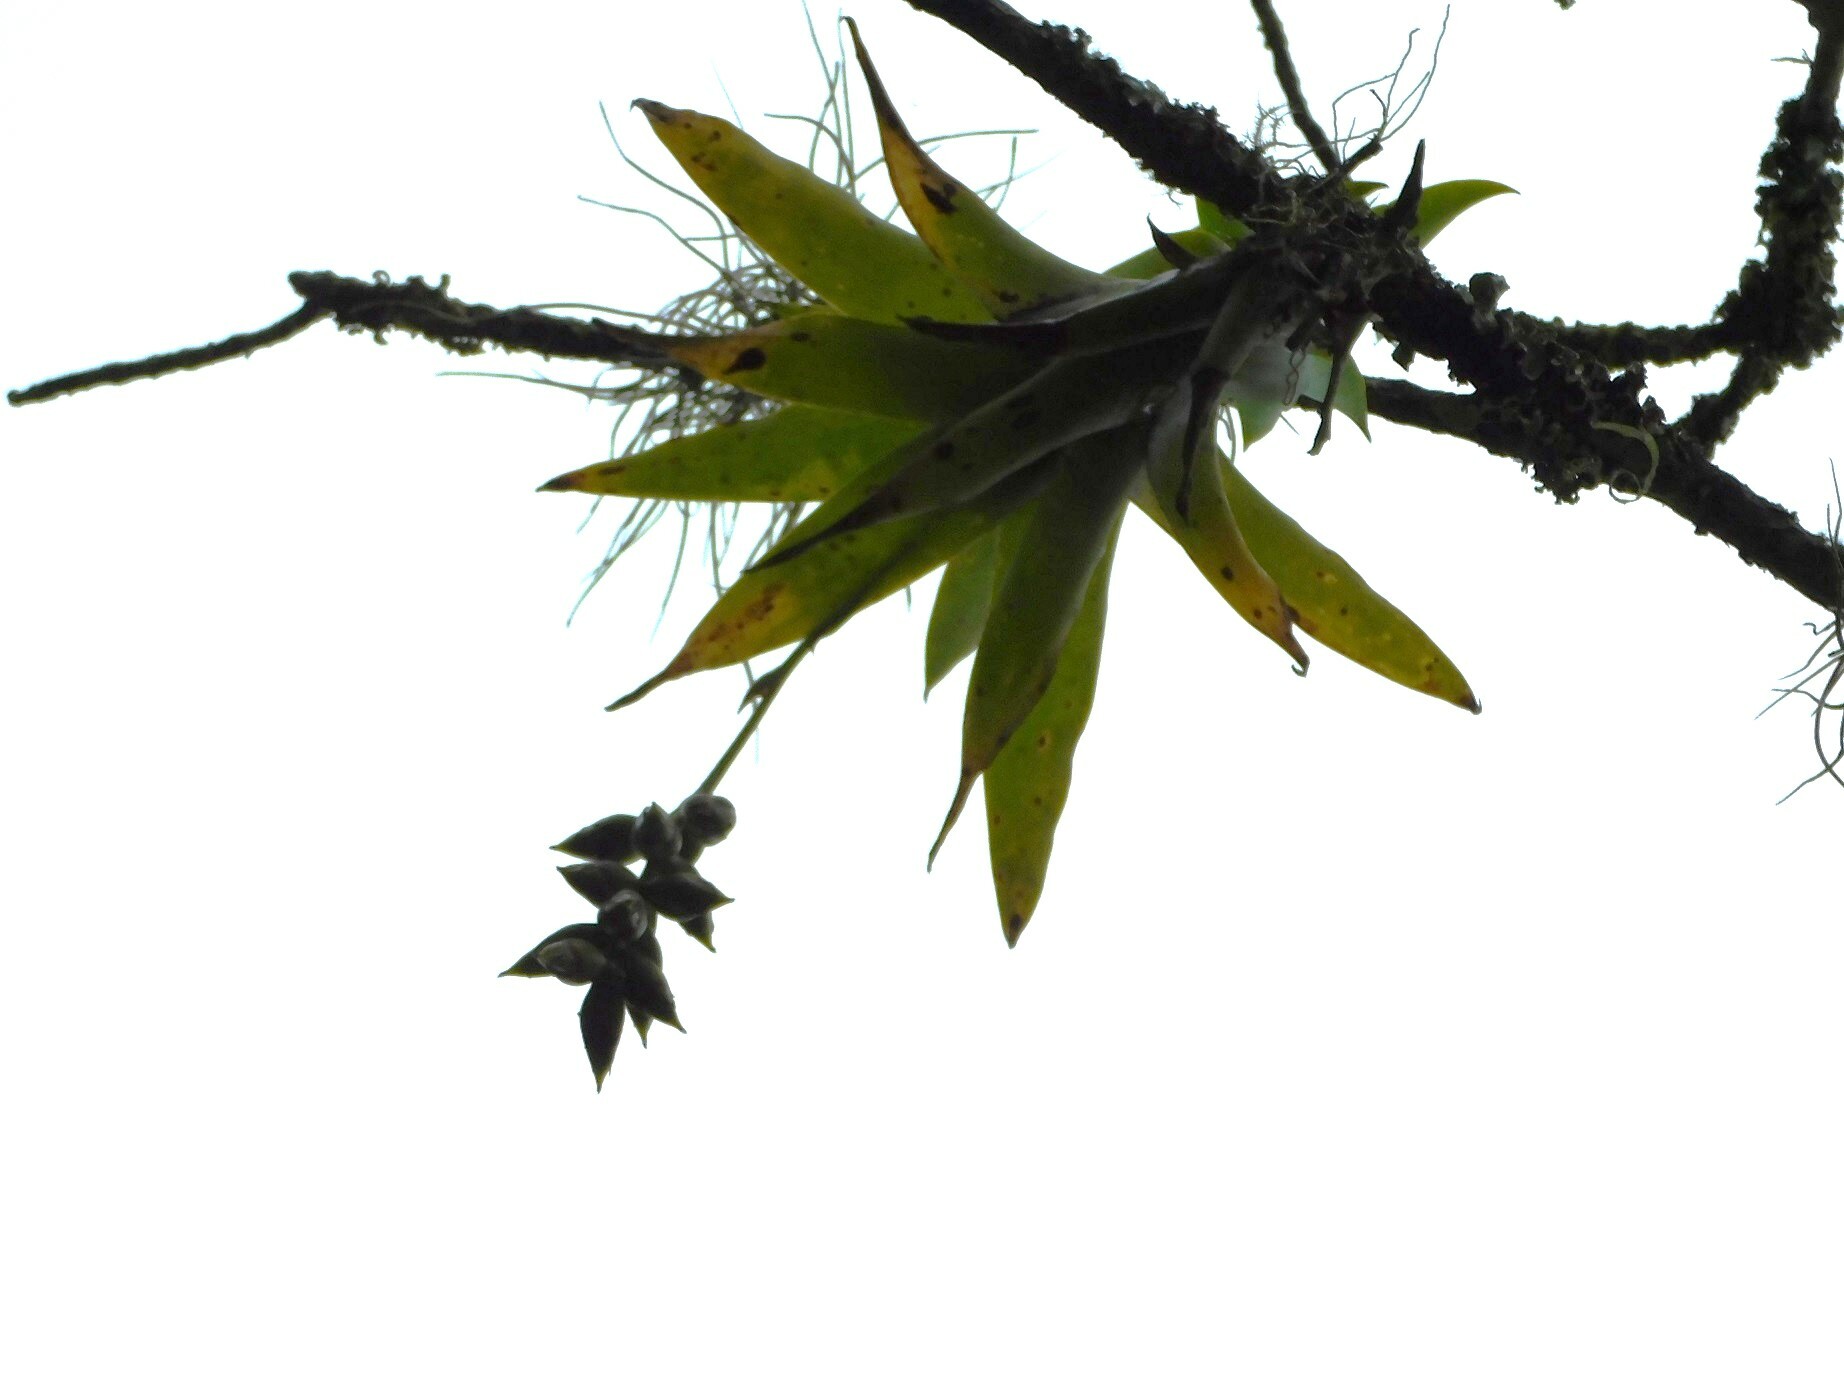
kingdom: Plantae
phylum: Tracheophyta
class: Liliopsida
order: Poales
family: Bromeliaceae
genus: Catopsis
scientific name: Catopsis nutans
